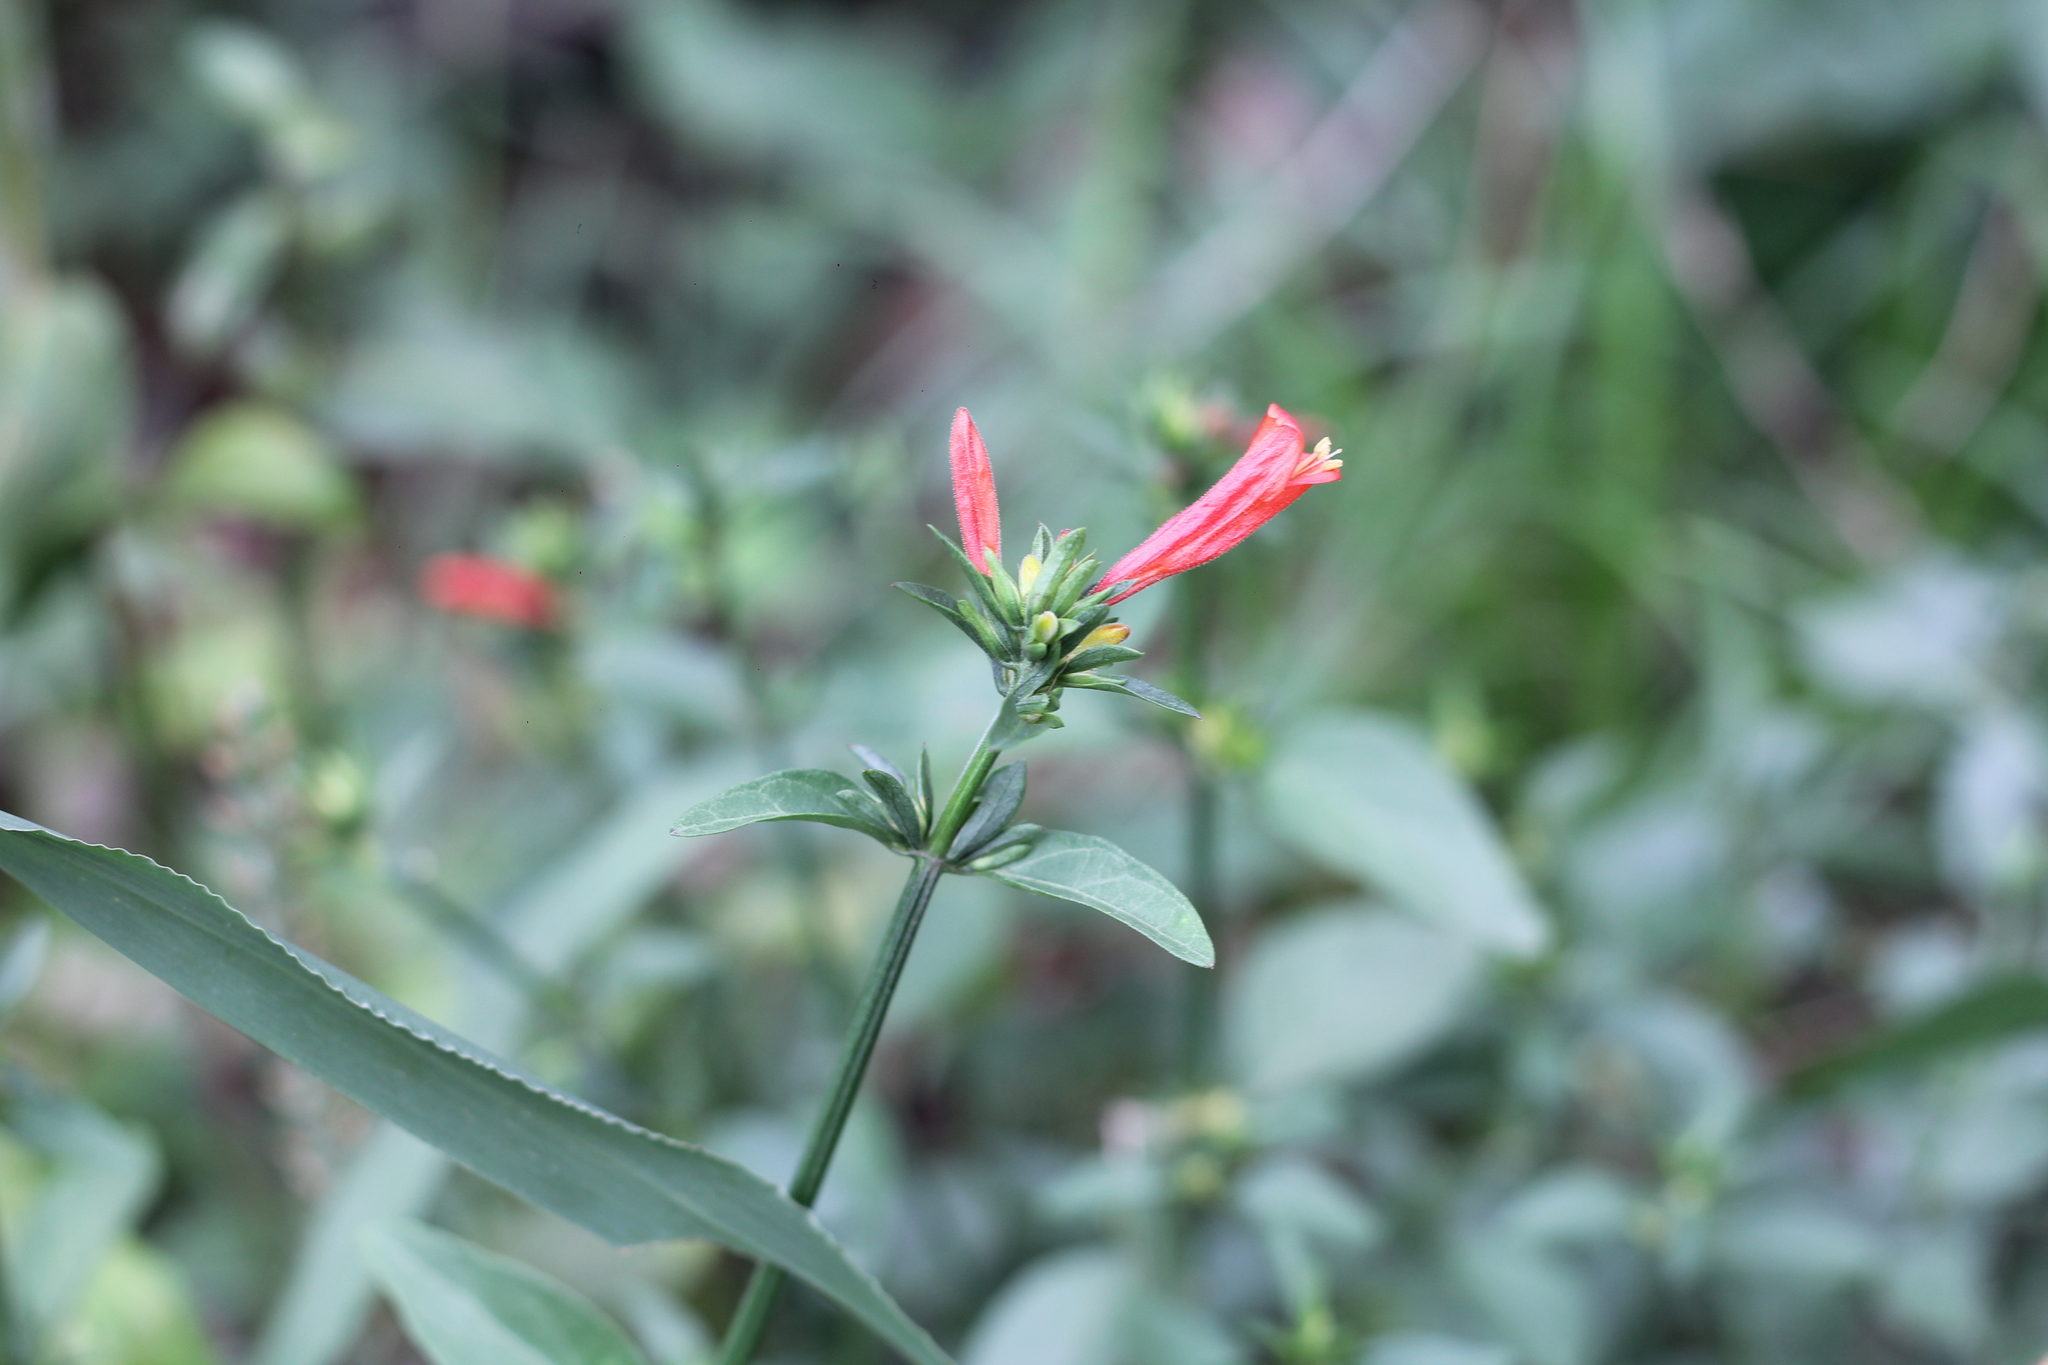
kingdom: Plantae
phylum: Tracheophyta
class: Magnoliopsida
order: Lamiales
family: Acanthaceae
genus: Dicliptera
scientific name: Dicliptera squarrosa
